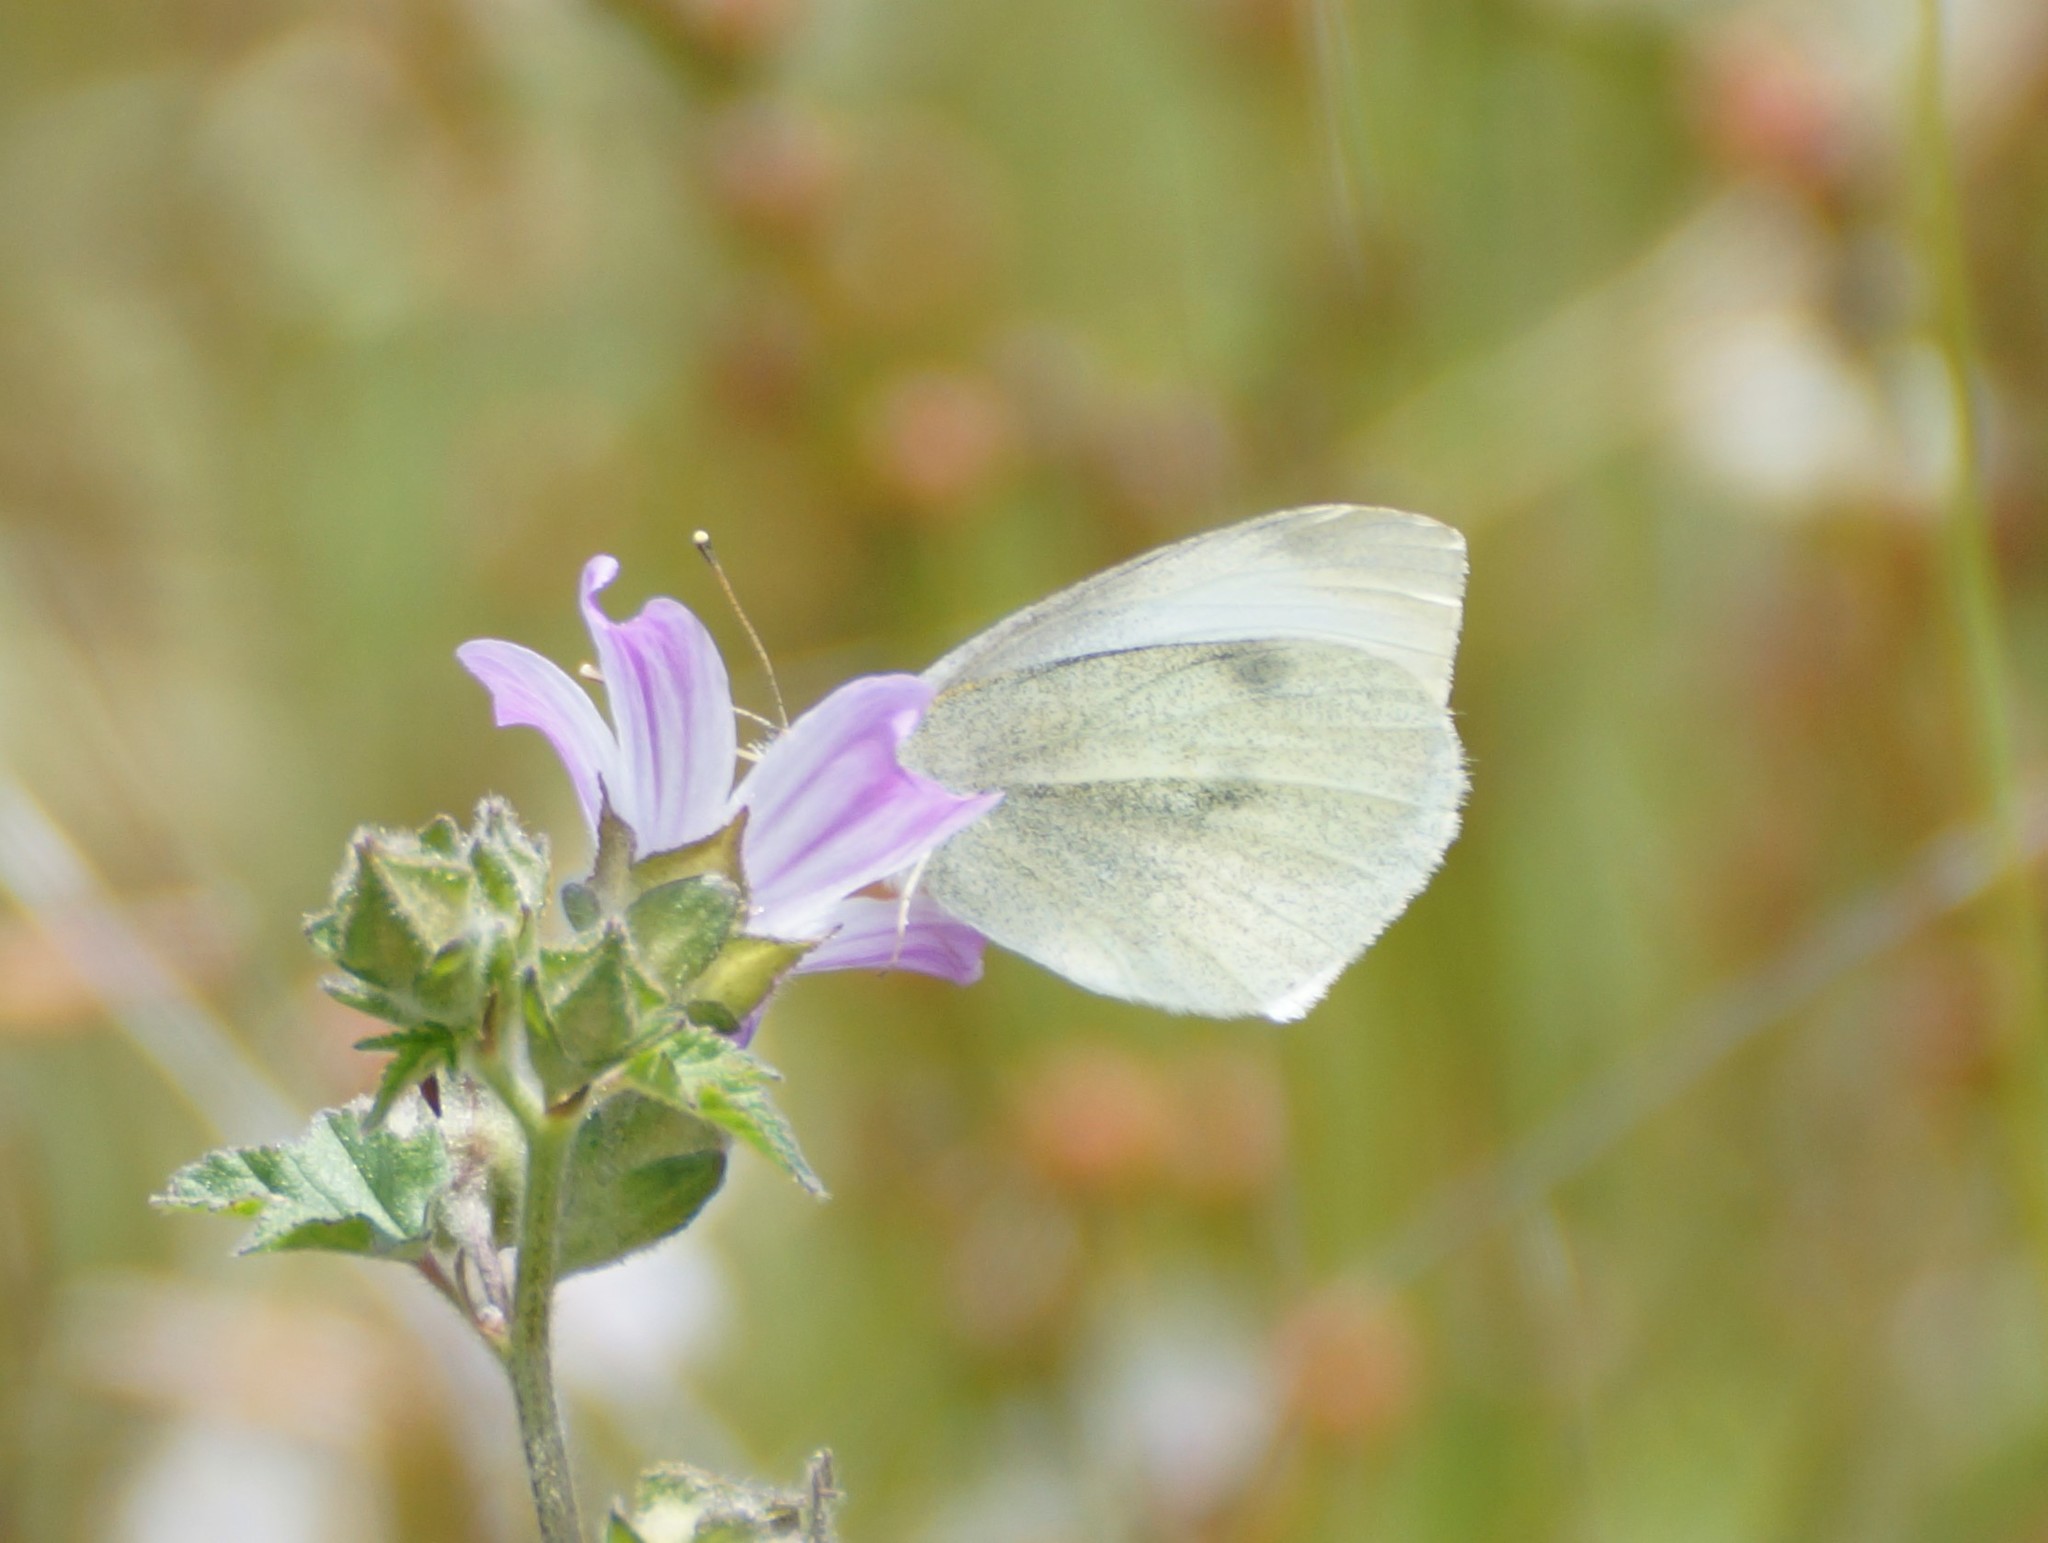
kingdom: Animalia
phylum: Arthropoda
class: Insecta
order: Lepidoptera
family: Pieridae
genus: Pieris
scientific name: Pieris rapae
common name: Small white
